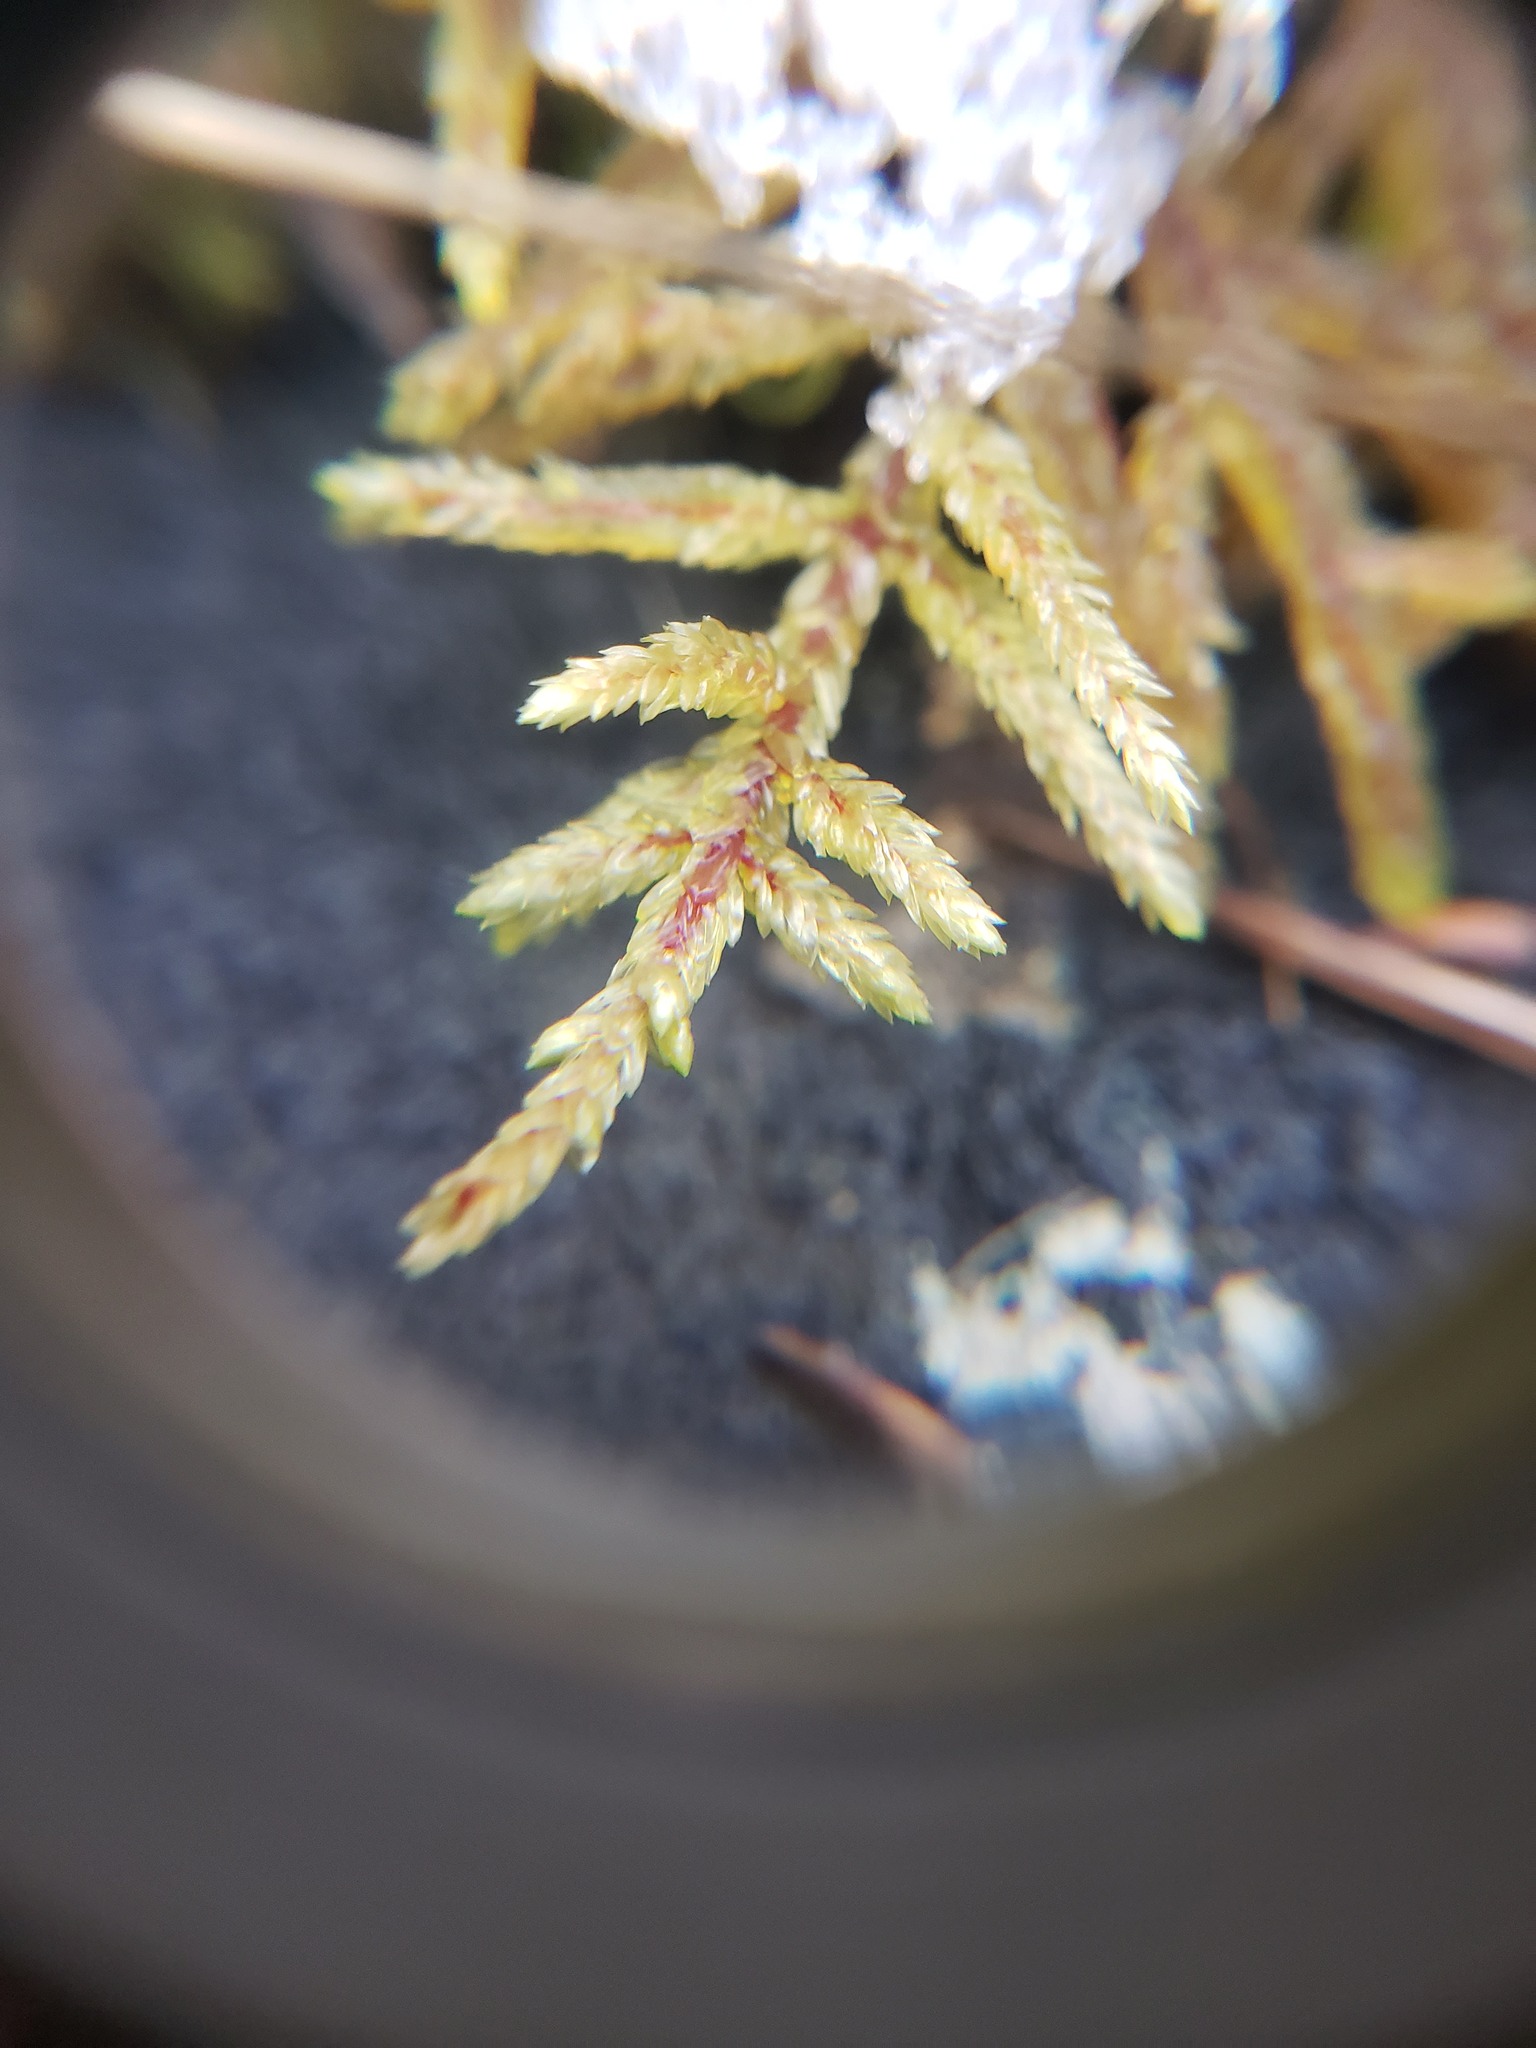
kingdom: Plantae
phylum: Bryophyta
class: Bryopsida
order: Hypnales
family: Hylocomiaceae
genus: Pleurozium
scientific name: Pleurozium schreberi
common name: Red-stemmed feather moss
